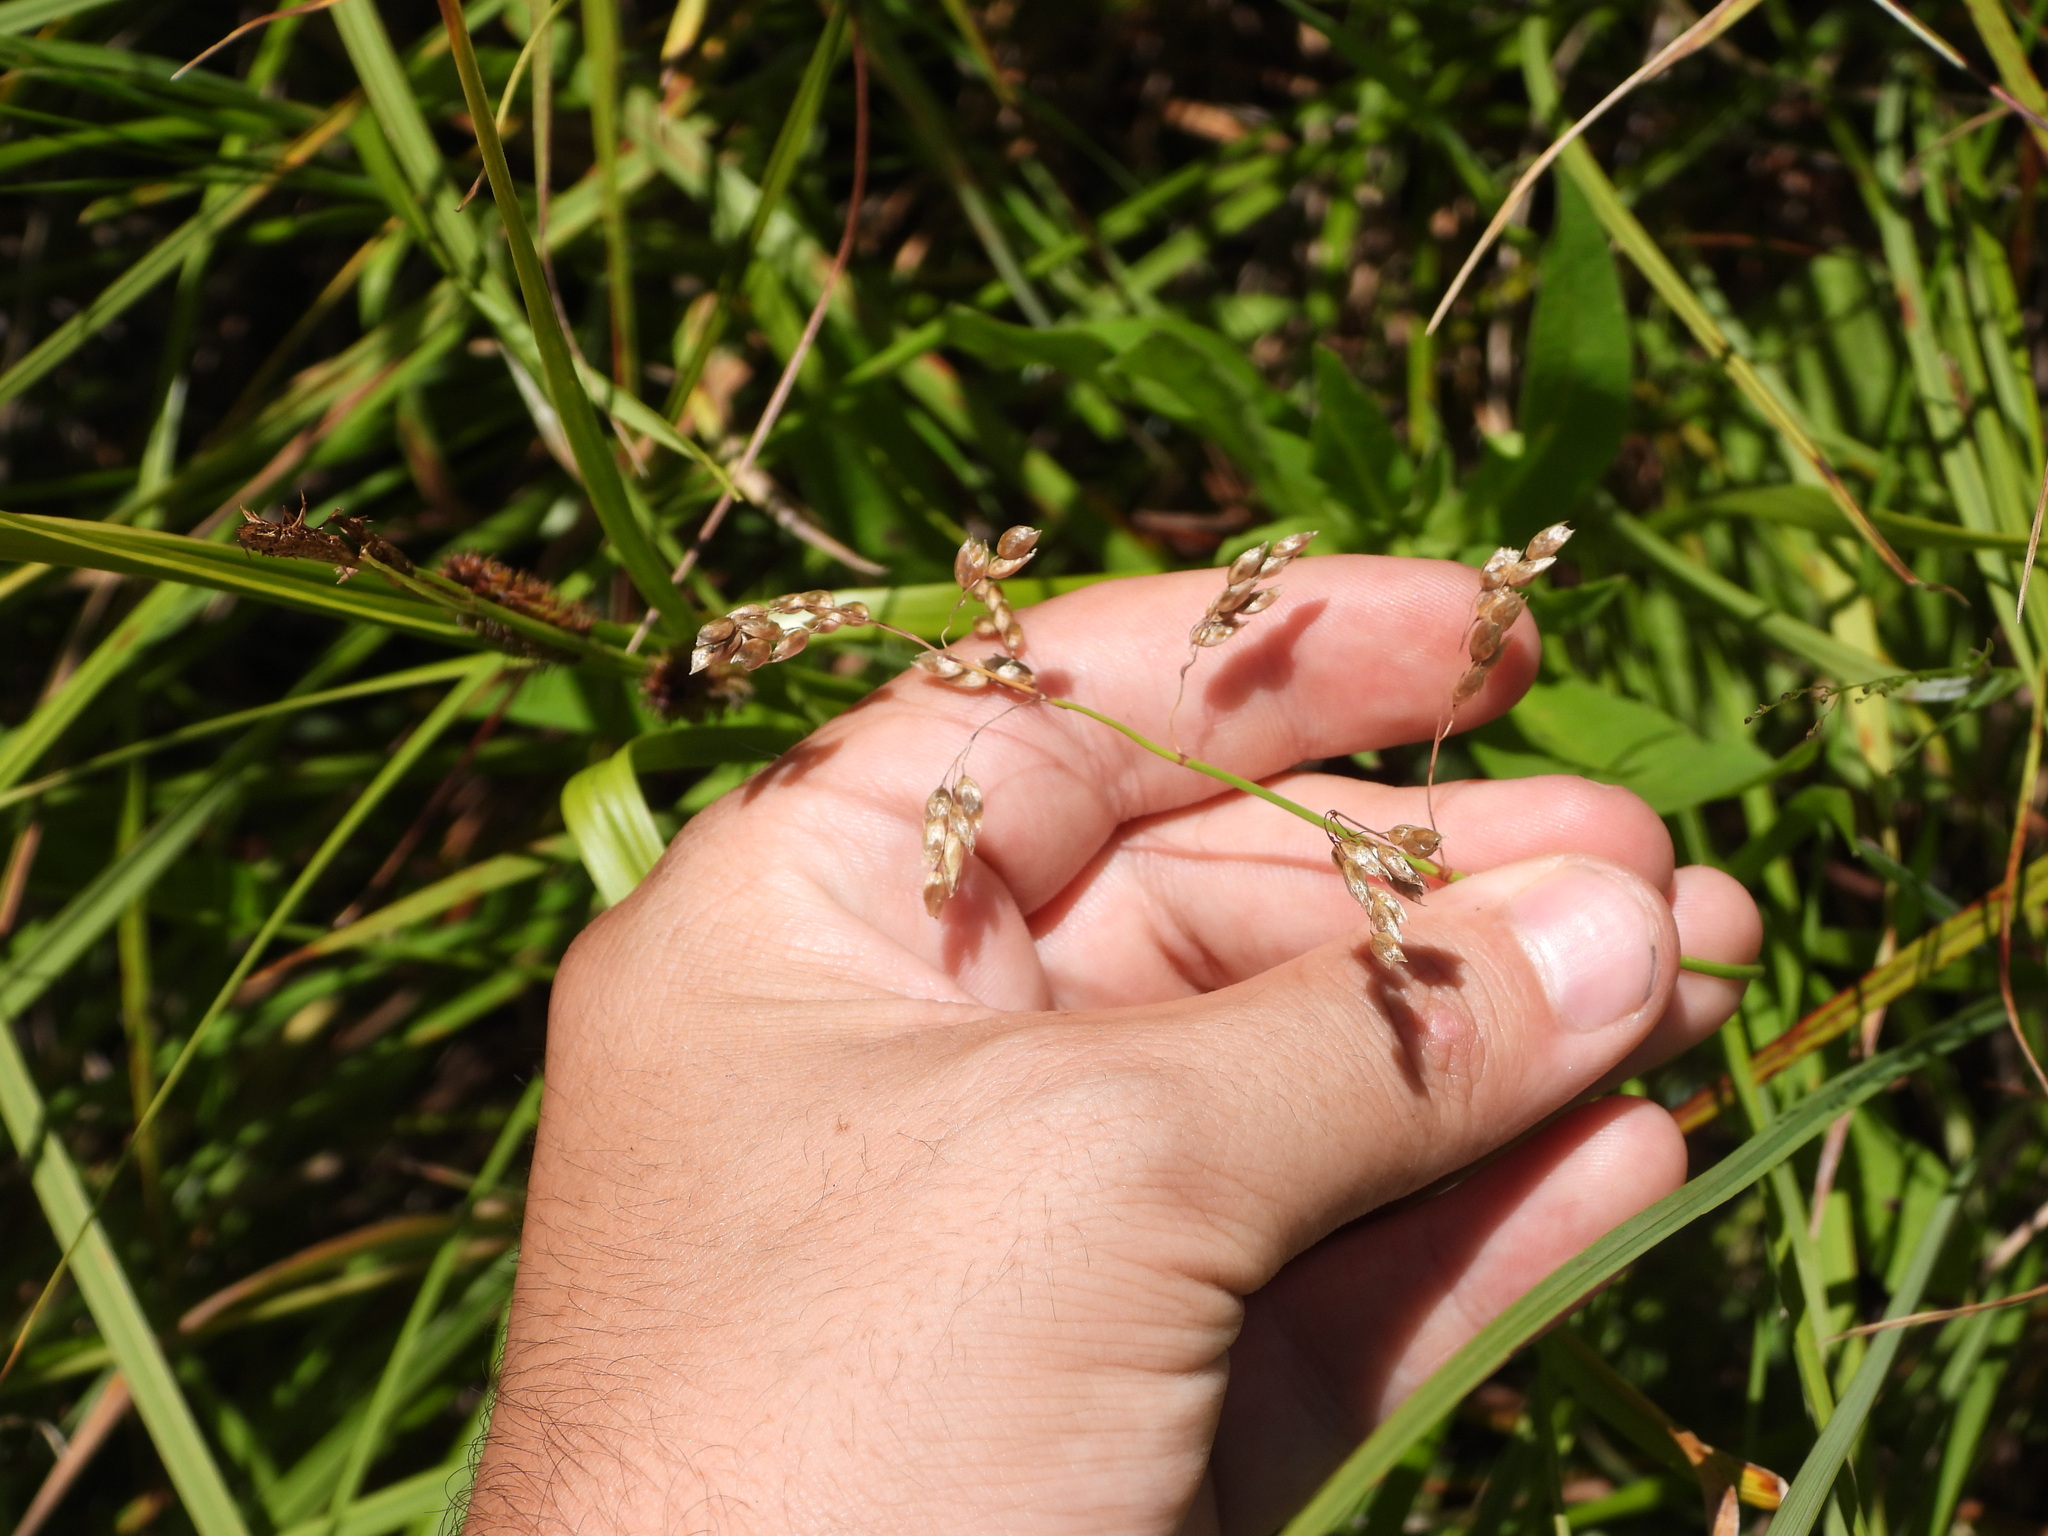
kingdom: Plantae
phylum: Tracheophyta
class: Liliopsida
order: Poales
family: Poaceae
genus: Anthoxanthum
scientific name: Anthoxanthum nitens
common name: Holy grass
